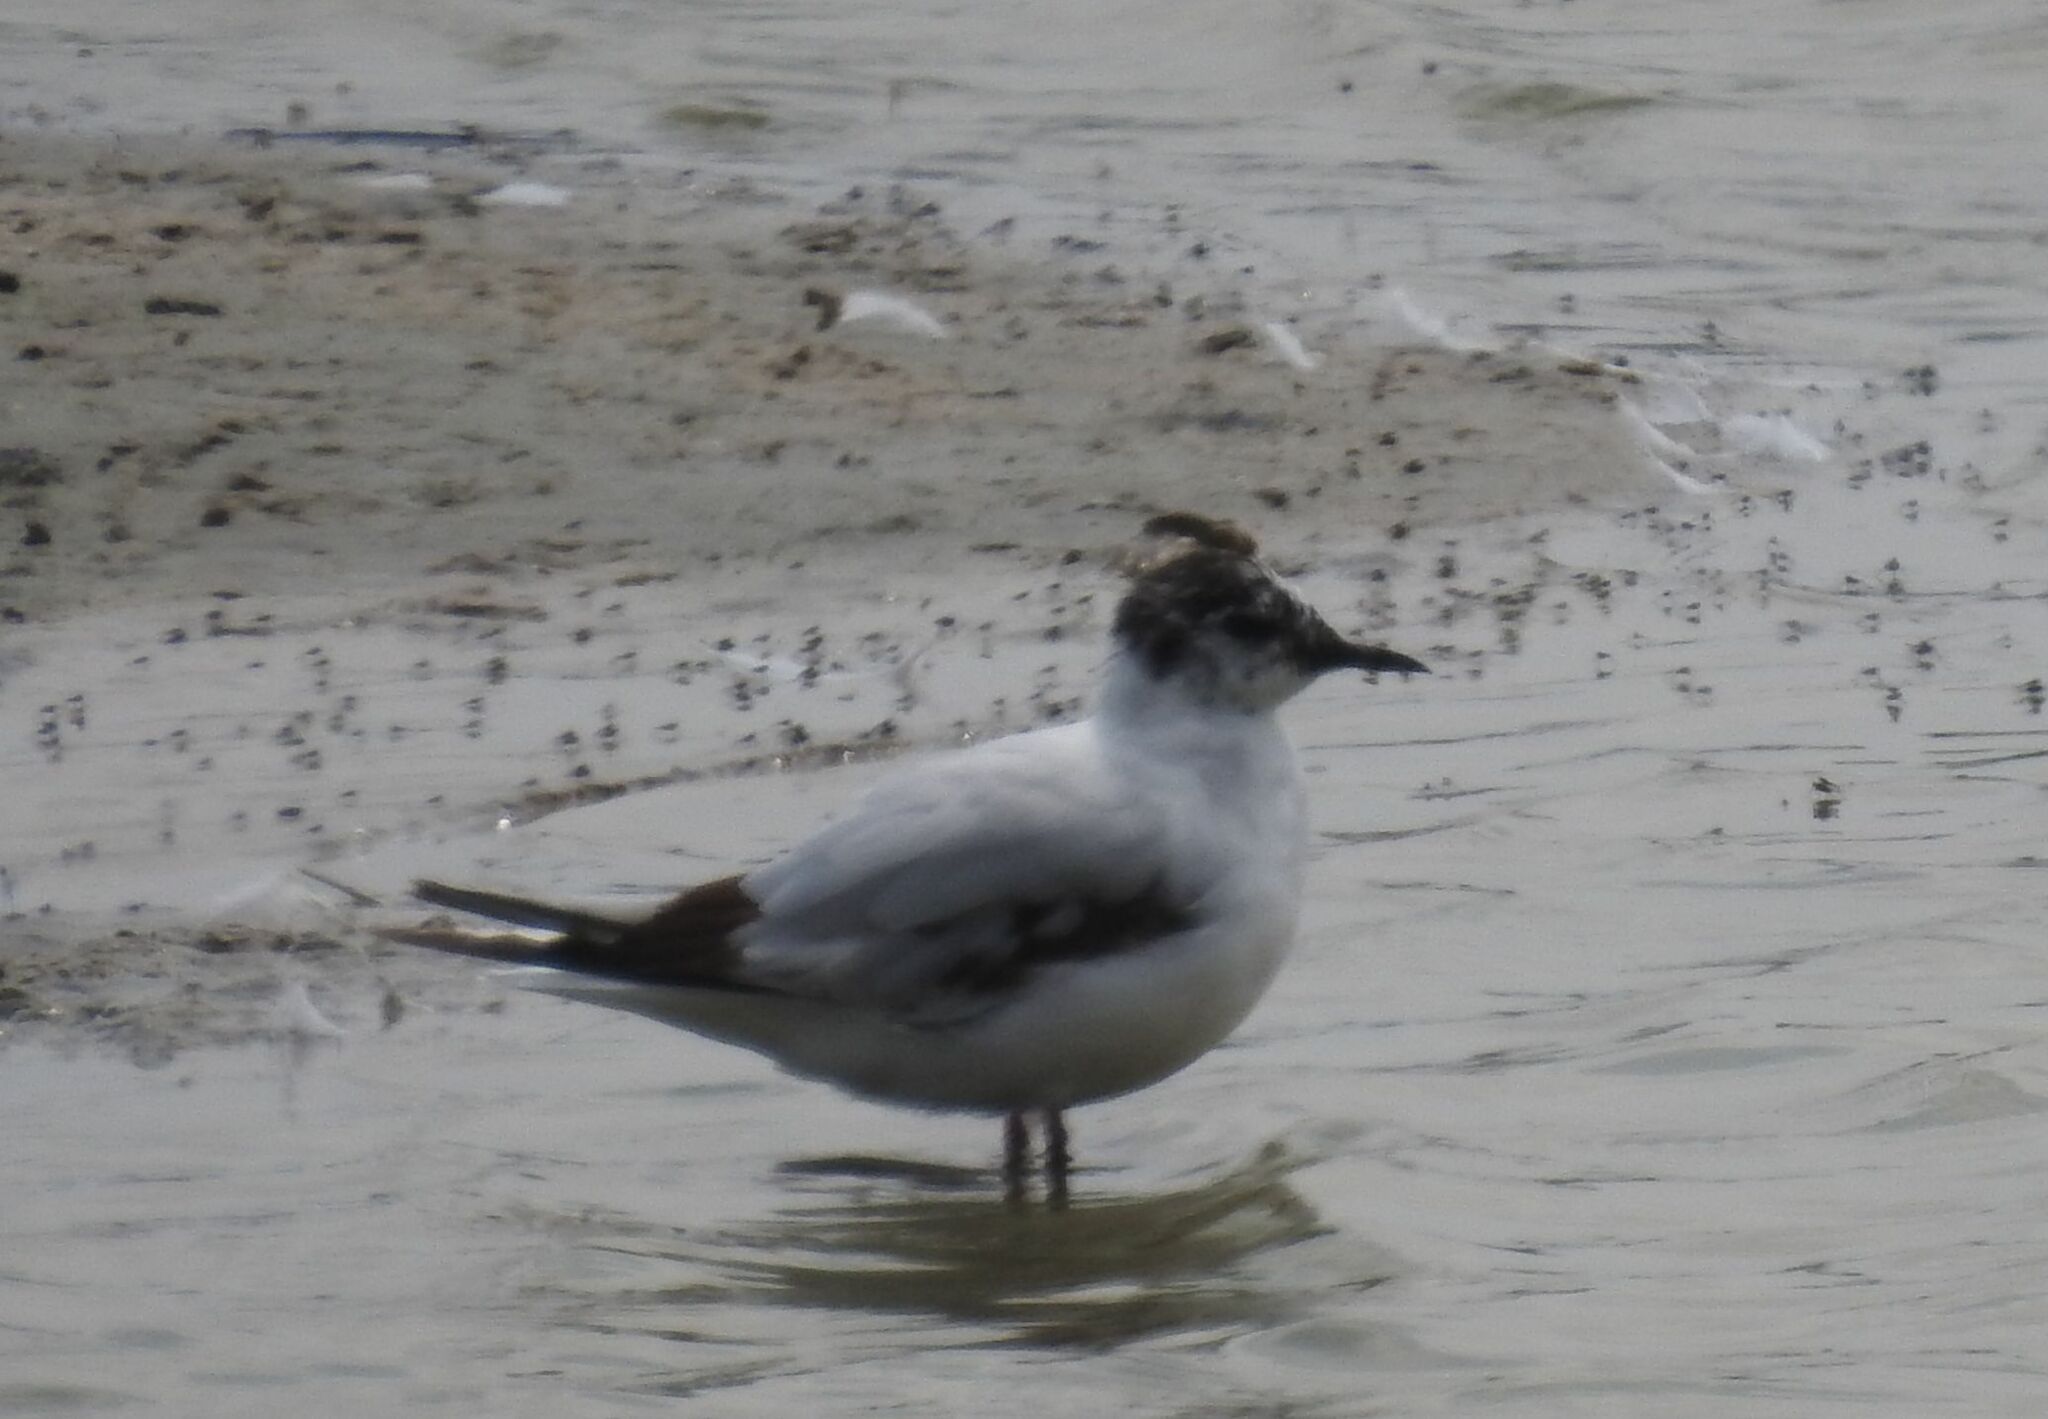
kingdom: Animalia
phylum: Chordata
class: Aves
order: Charadriiformes
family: Laridae
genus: Hydrocoloeus
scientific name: Hydrocoloeus minutus
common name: Little gull
